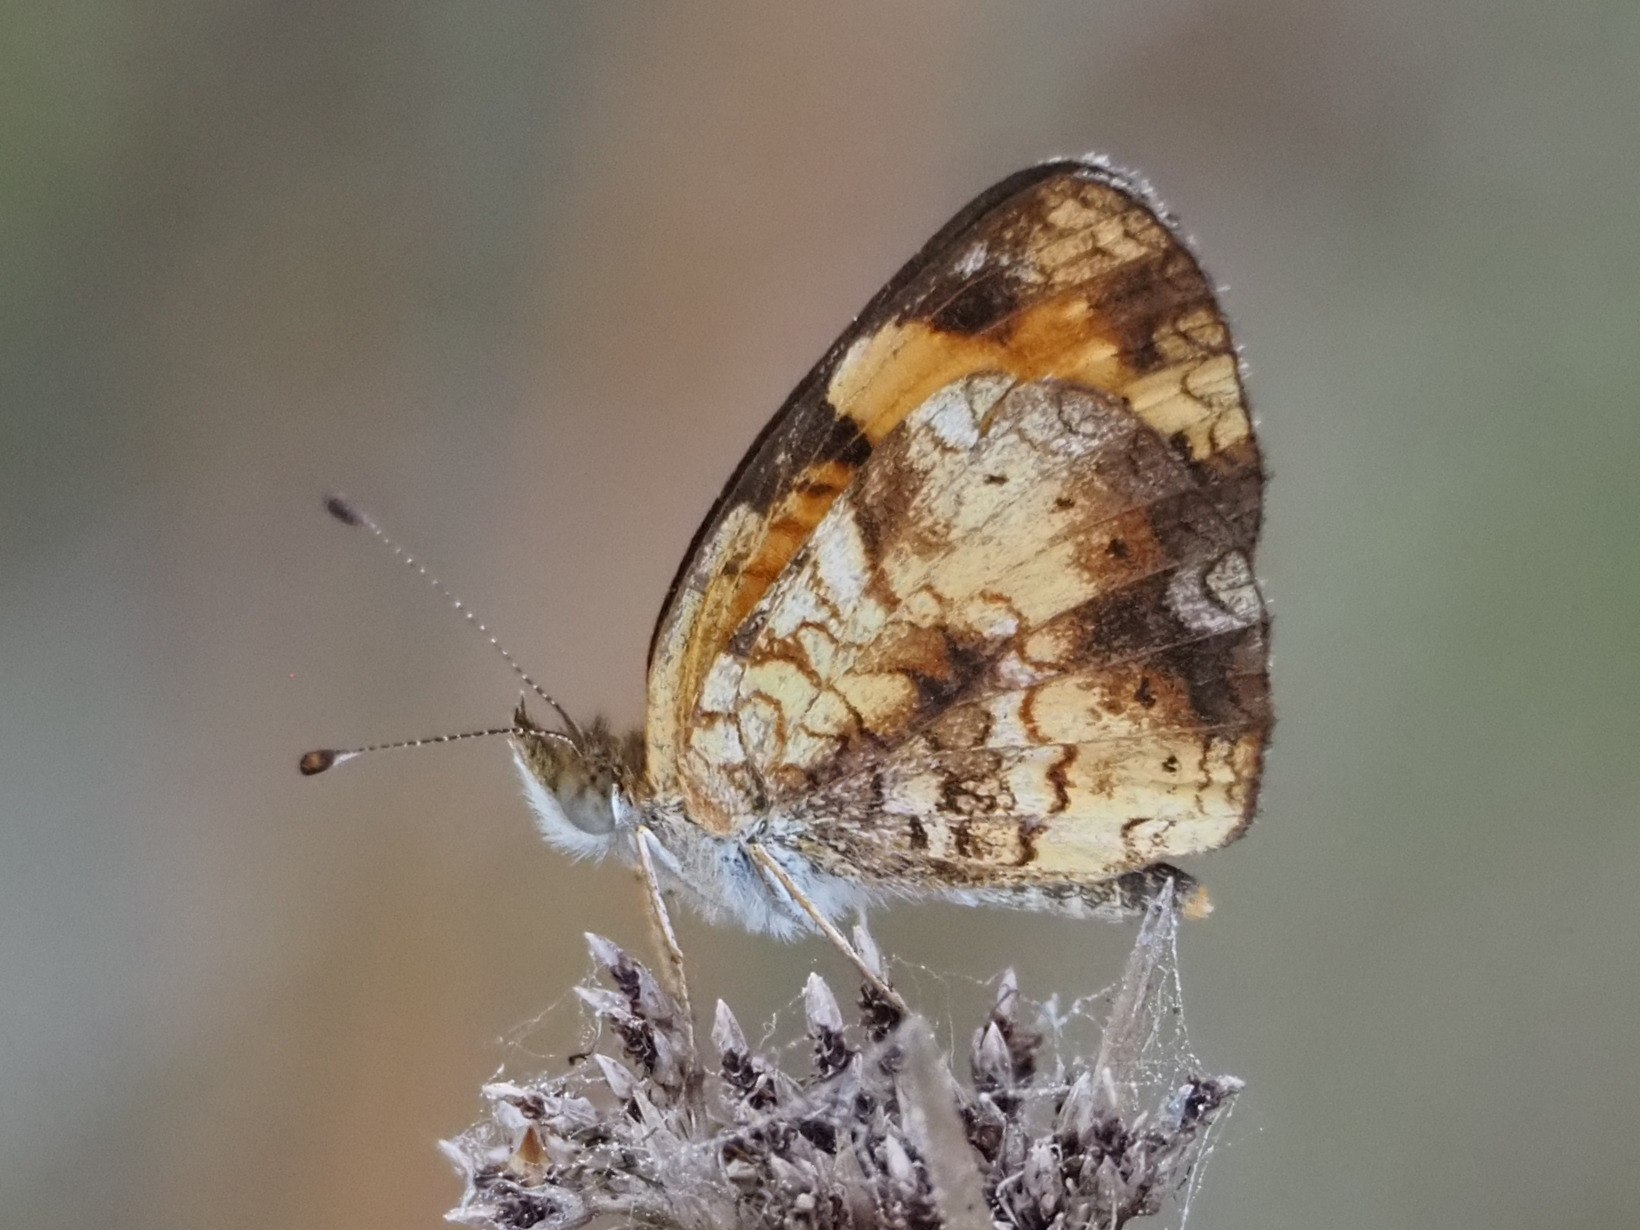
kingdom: Animalia
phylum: Arthropoda
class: Insecta
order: Lepidoptera
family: Nymphalidae
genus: Phyciodes
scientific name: Phyciodes tharos
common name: Pearl crescent
